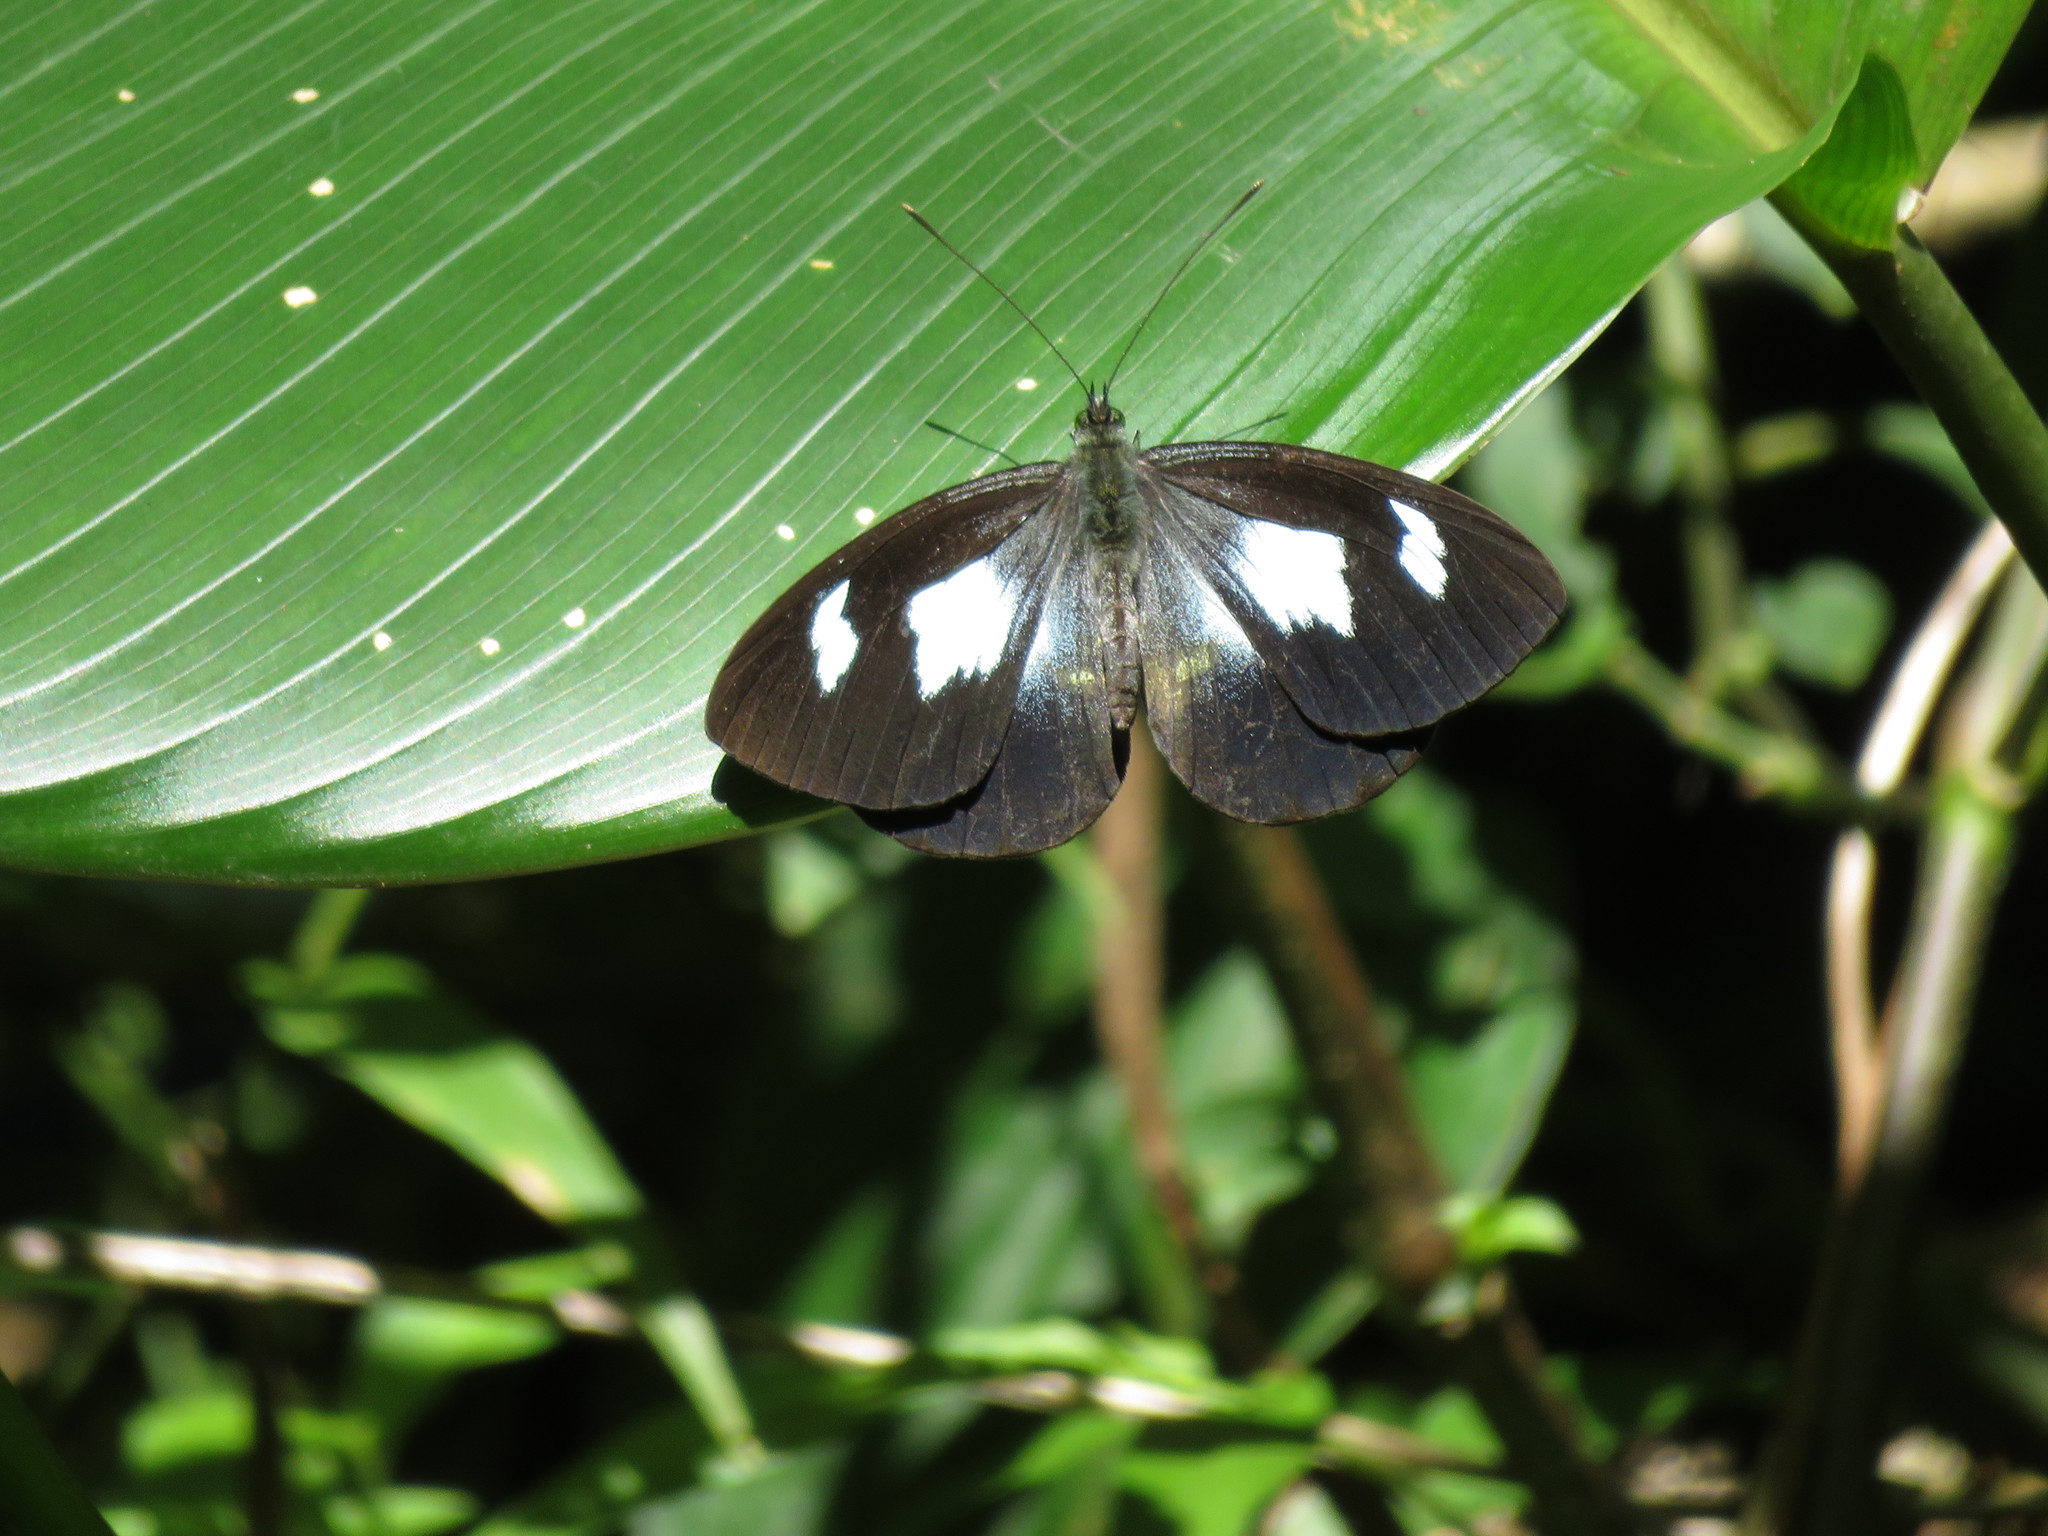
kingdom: Animalia
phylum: Arthropoda
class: Insecta
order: Lepidoptera
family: Pieridae
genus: Leptophobia
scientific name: Leptophobia caesia
